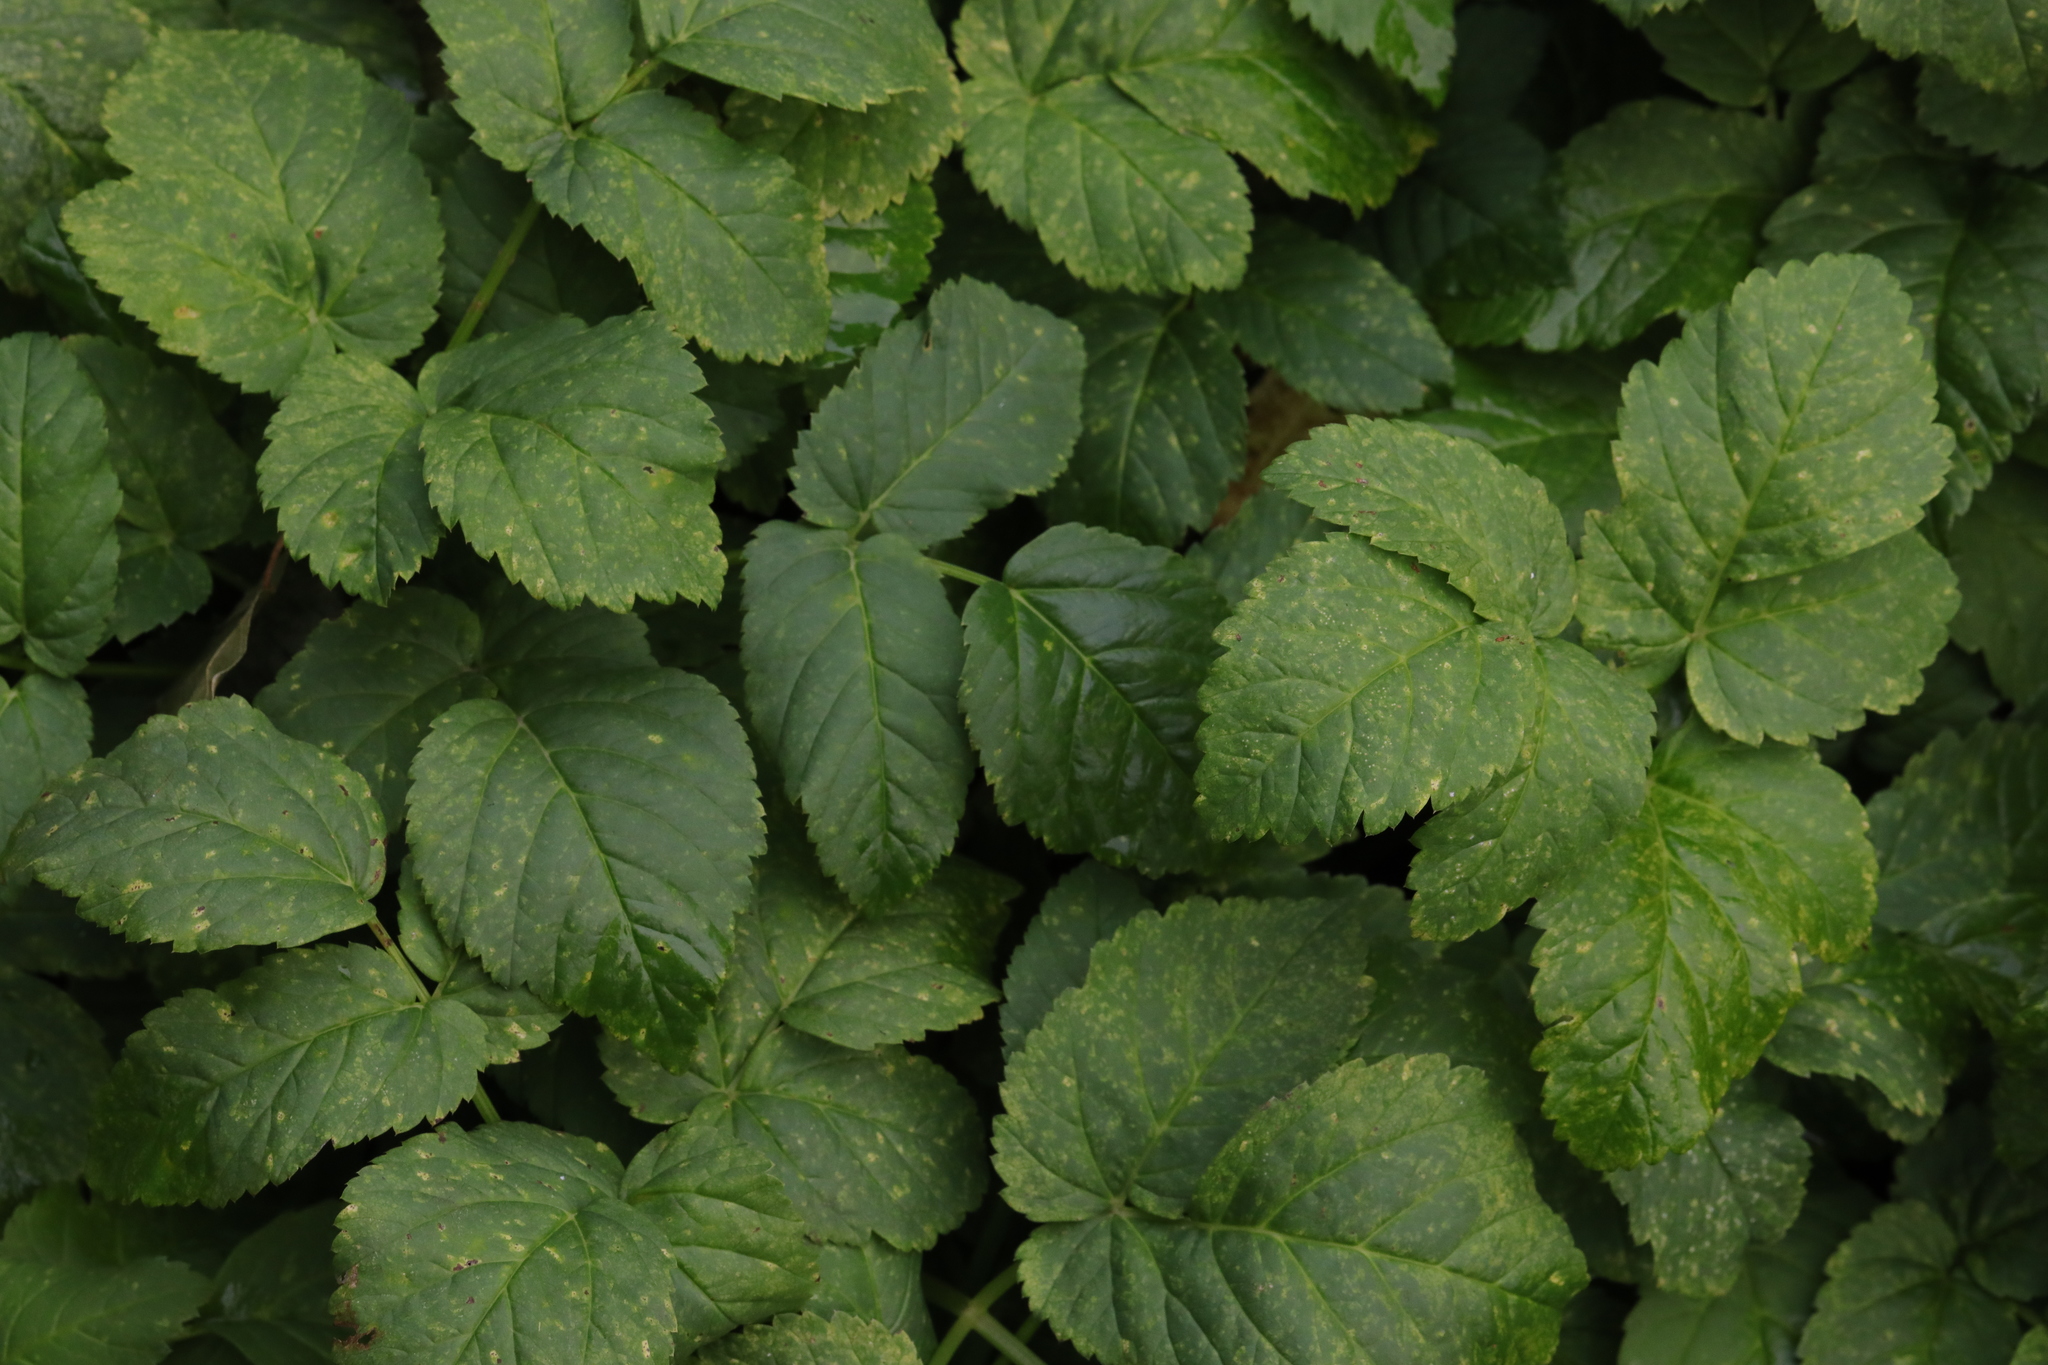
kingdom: Plantae
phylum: Tracheophyta
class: Magnoliopsida
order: Apiales
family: Apiaceae
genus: Aegopodium
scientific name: Aegopodium podagraria
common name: Ground-elder
